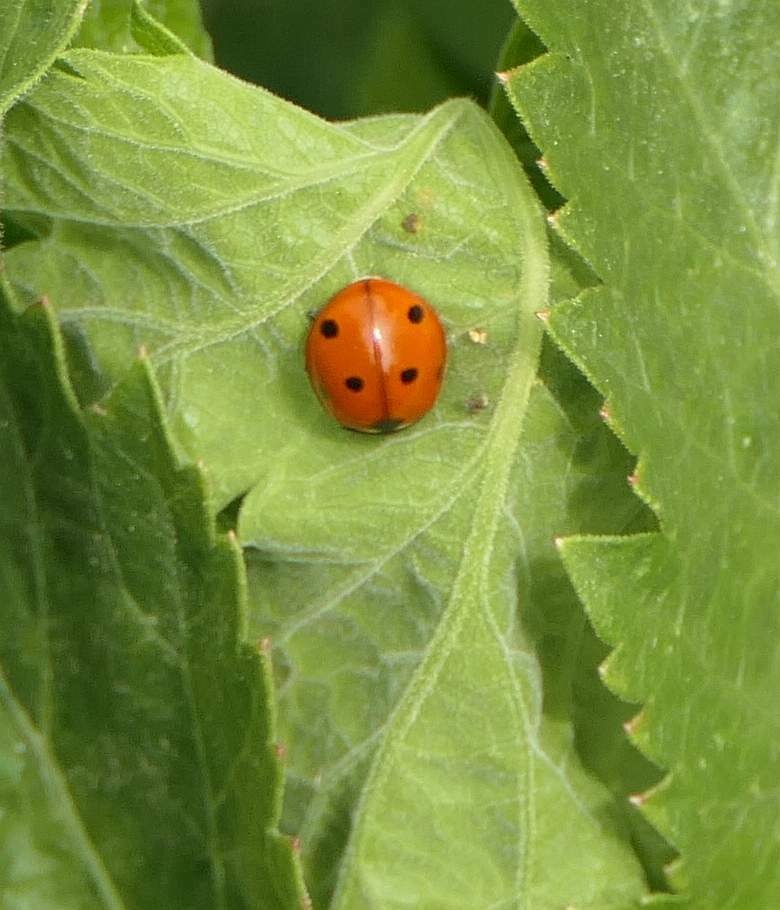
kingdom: Animalia
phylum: Arthropoda
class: Insecta
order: Coleoptera
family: Coccinellidae
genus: Coccinella
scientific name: Coccinella septempunctata
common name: Sevenspotted lady beetle
